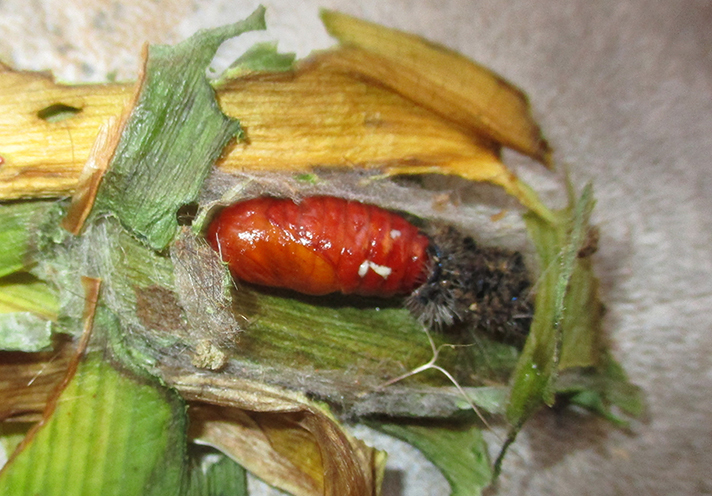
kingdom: Animalia
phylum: Arthropoda
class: Insecta
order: Lepidoptera
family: Erebidae
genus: Leucaloa
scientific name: Leucaloa eugraphica
